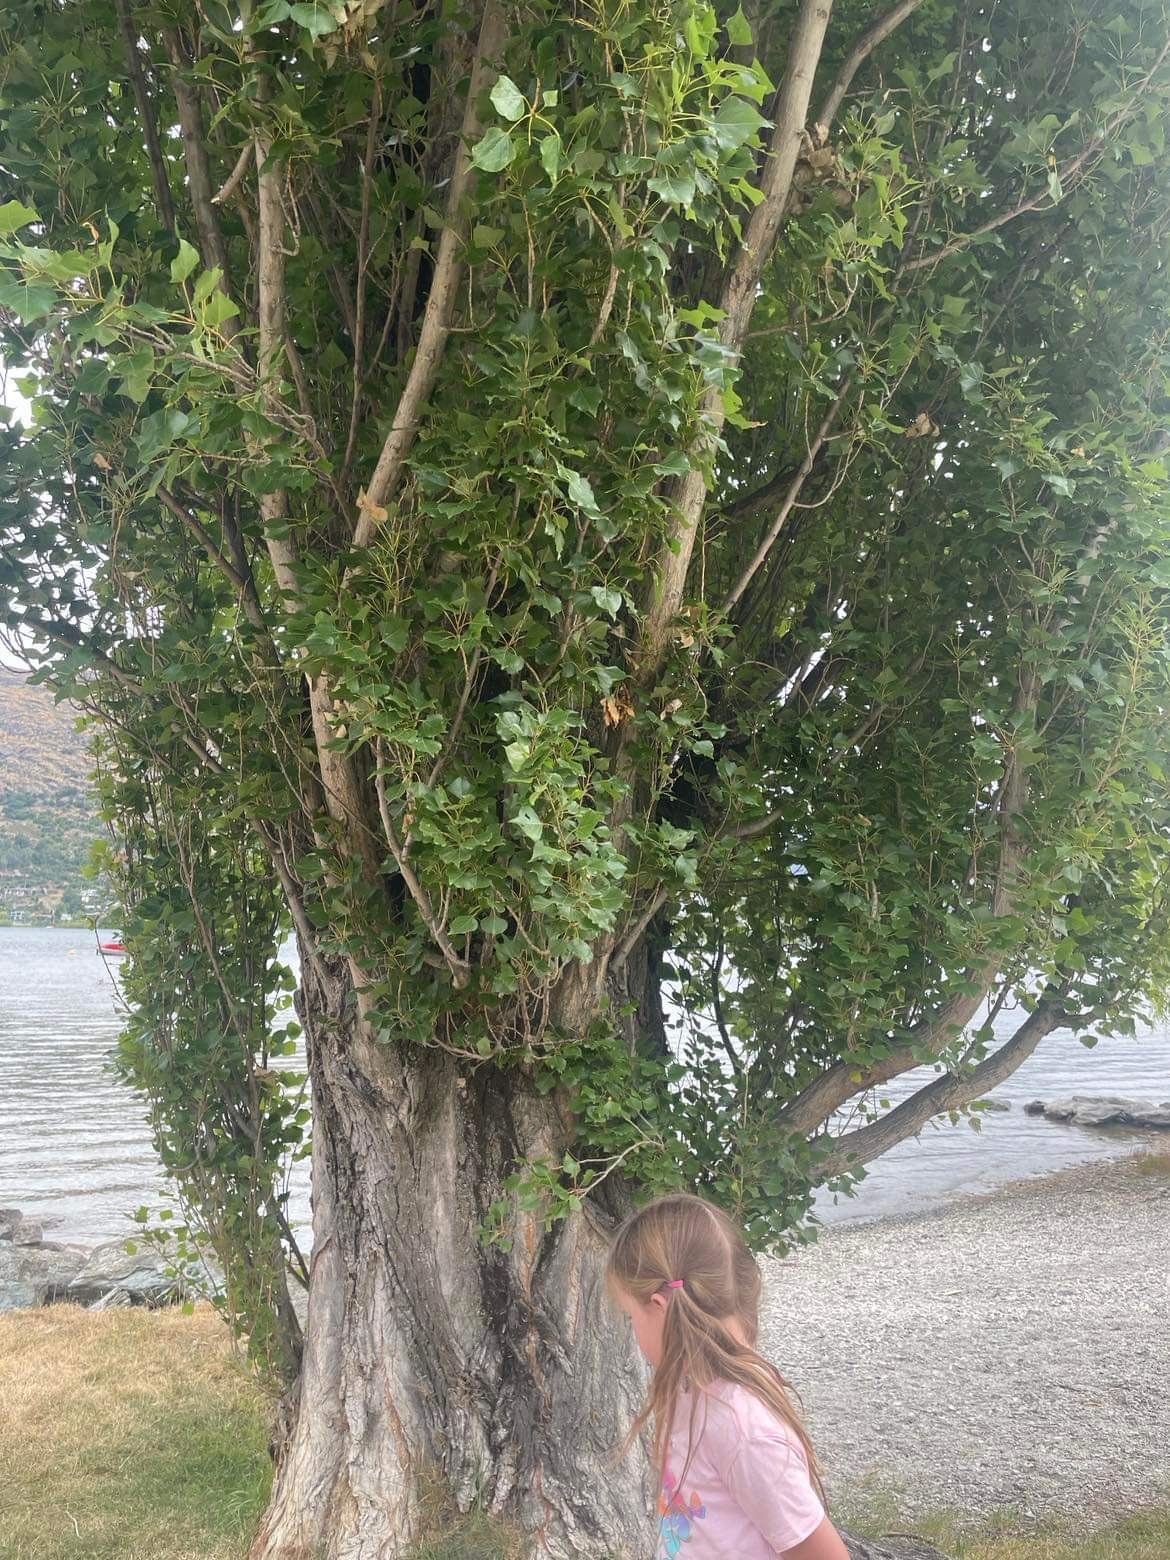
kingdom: Animalia
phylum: Arthropoda
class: Insecta
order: Hymenoptera
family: Tenthredinidae
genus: Cladius
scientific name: Cladius grandis
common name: Common sawfly
